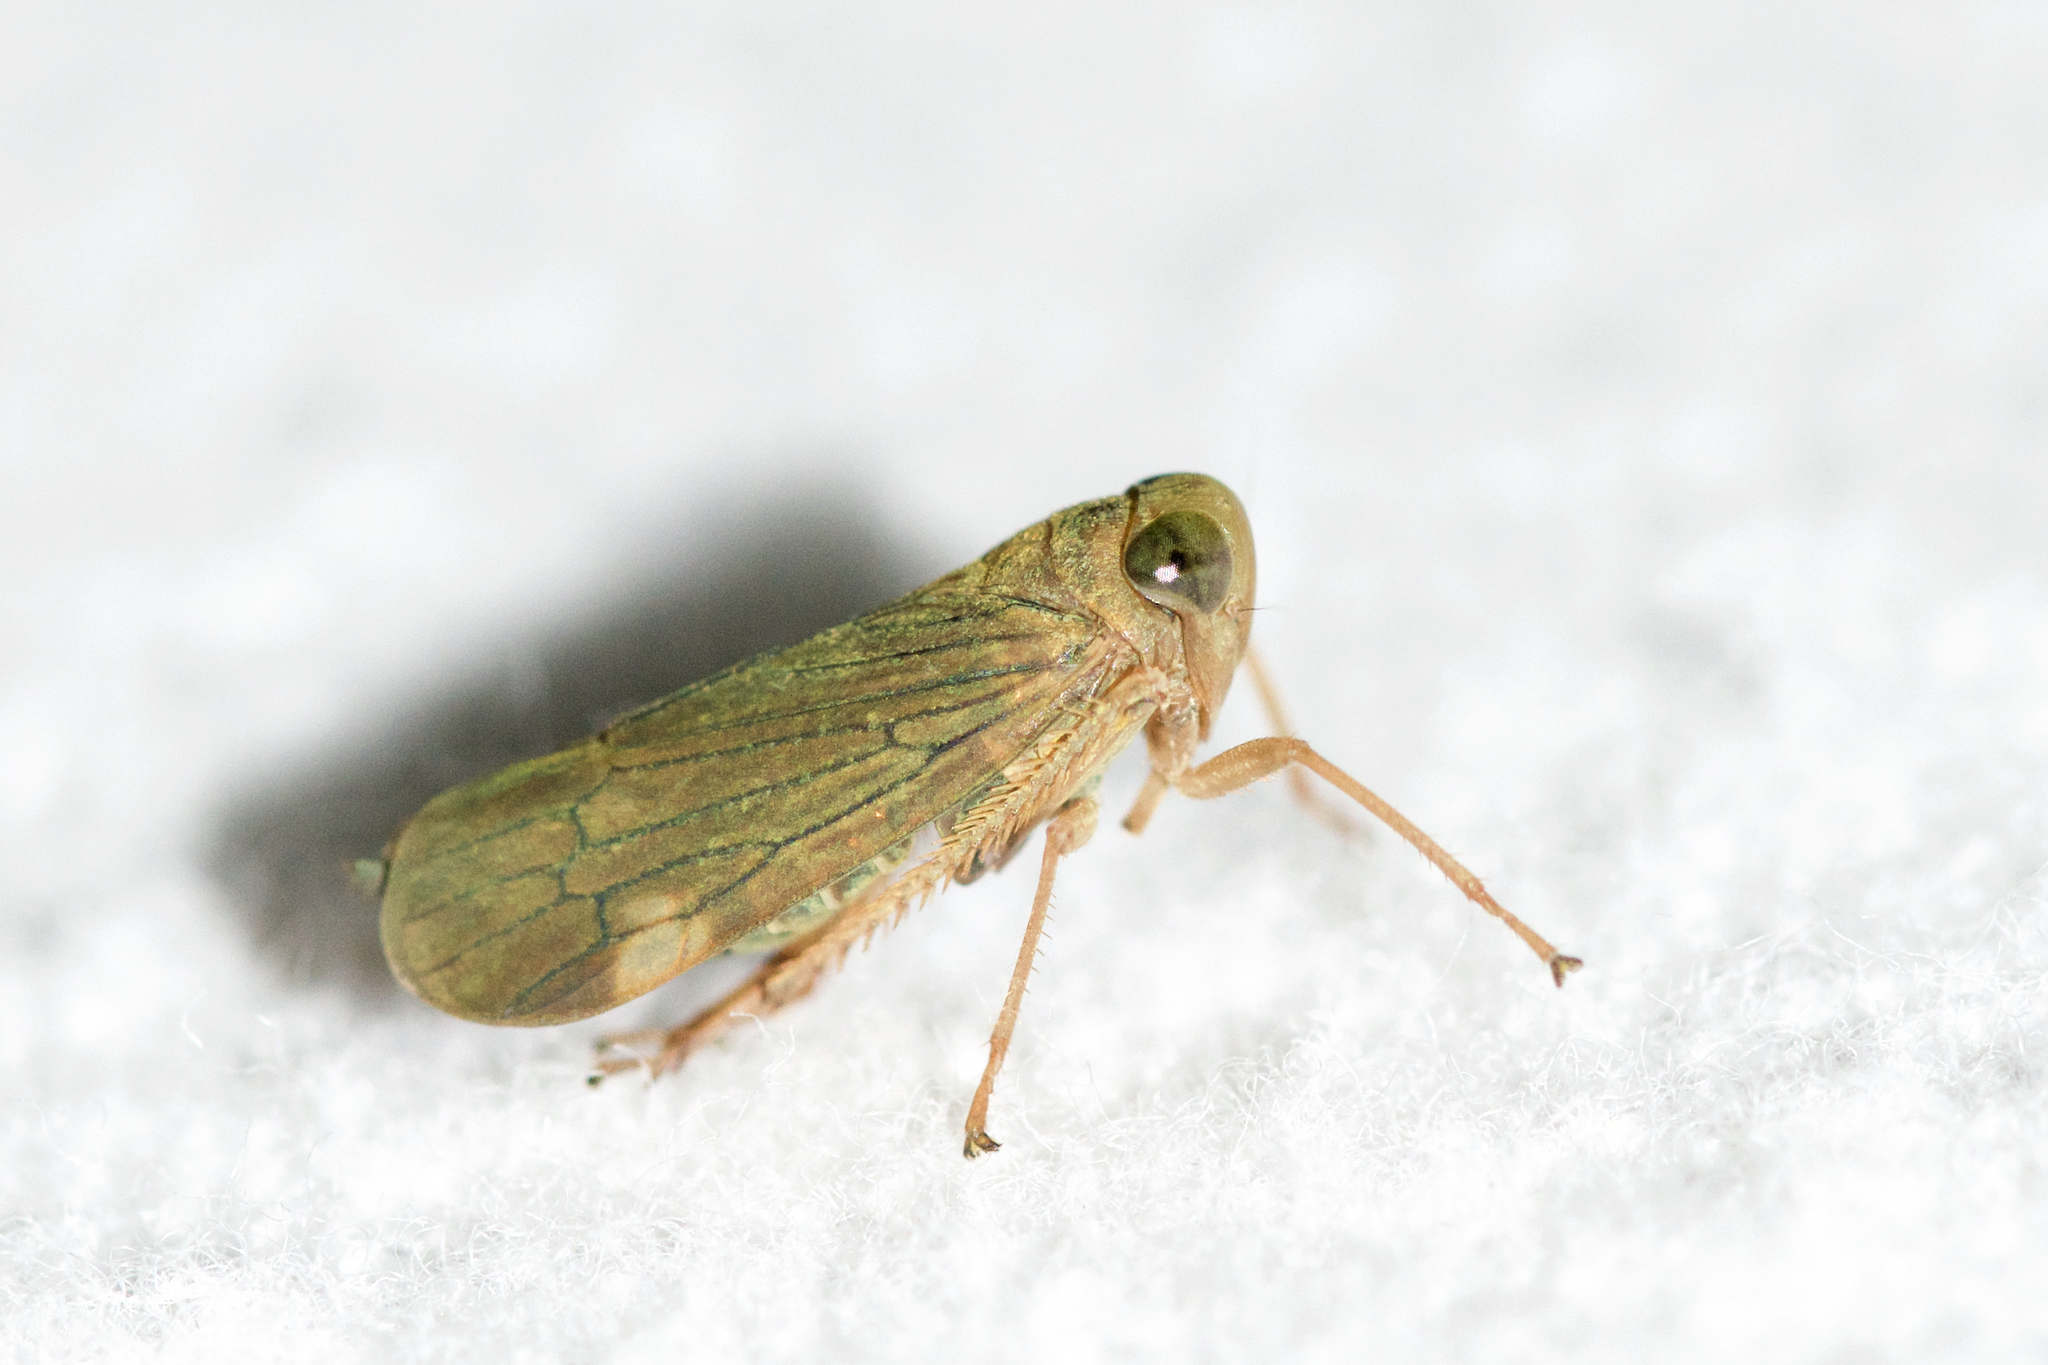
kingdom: Animalia
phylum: Arthropoda
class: Insecta
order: Hemiptera
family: Cicadellidae
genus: Jikradia
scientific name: Jikradia olitoria
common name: Coppery leafhopper
